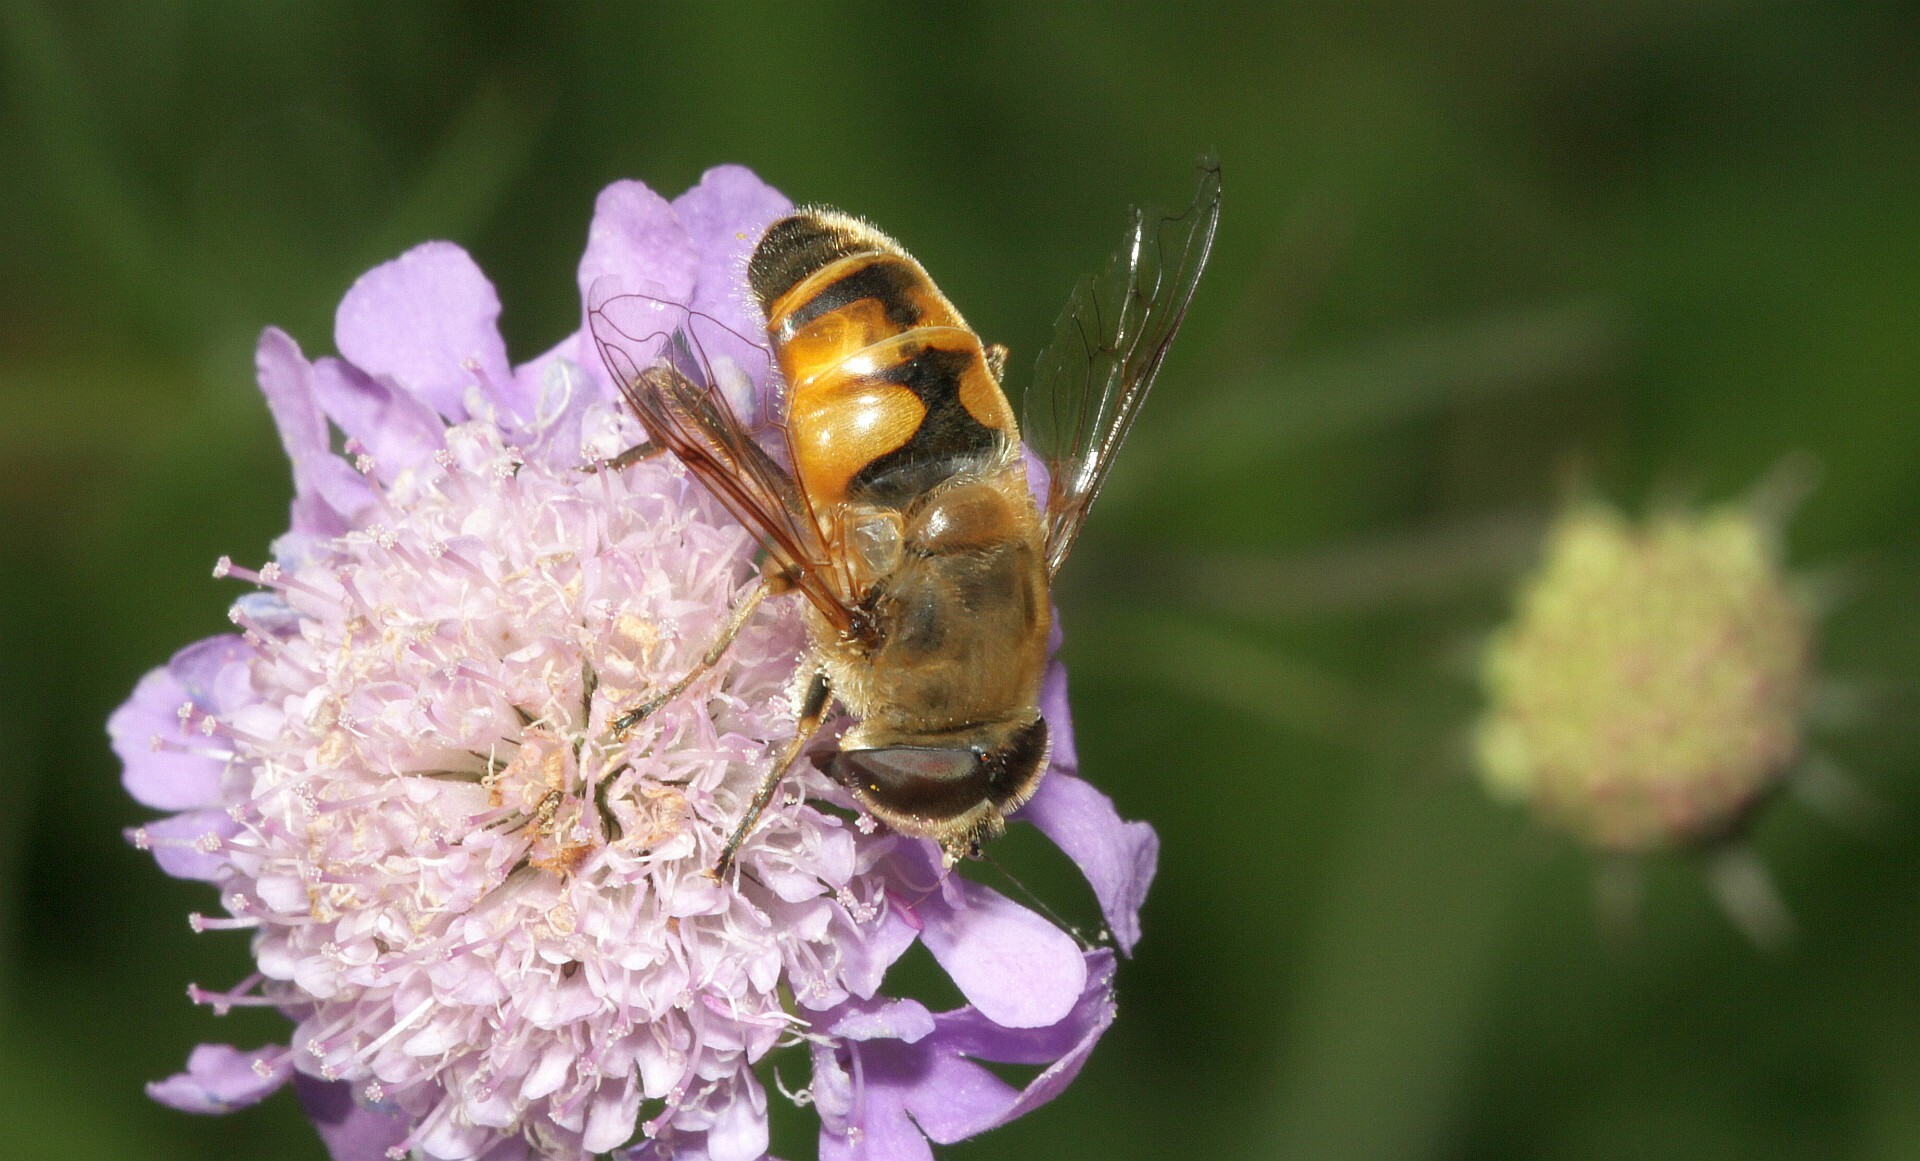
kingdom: Animalia
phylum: Arthropoda
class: Insecta
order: Diptera
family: Syrphidae
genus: Eristalis
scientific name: Eristalis tenax
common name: Drone fly
